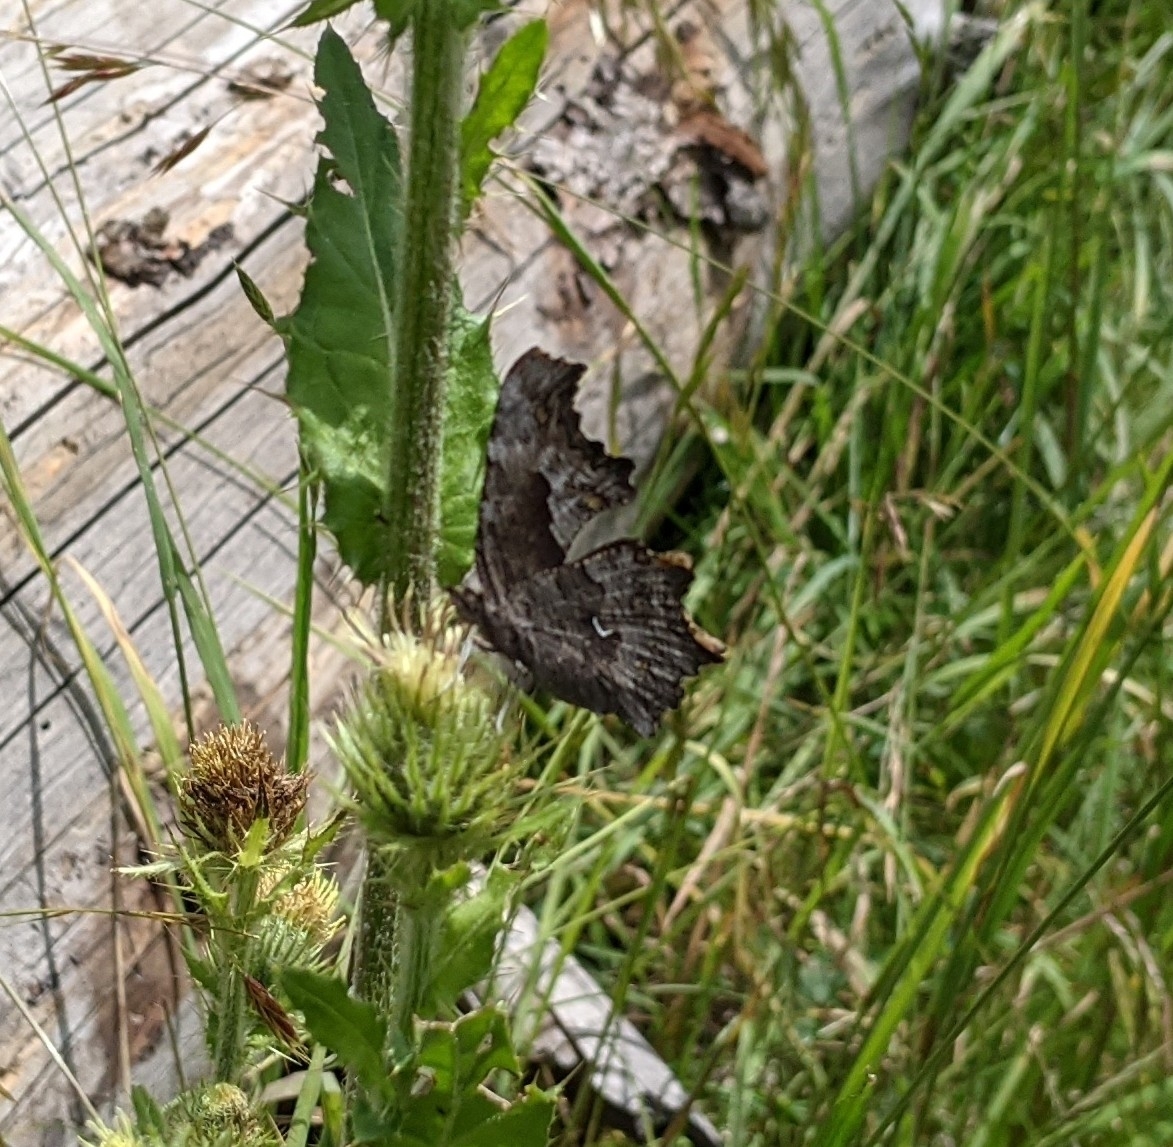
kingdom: Animalia
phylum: Arthropoda
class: Insecta
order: Lepidoptera
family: Nymphalidae
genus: Polygonia
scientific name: Polygonia gracilis
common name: Hoary comma
